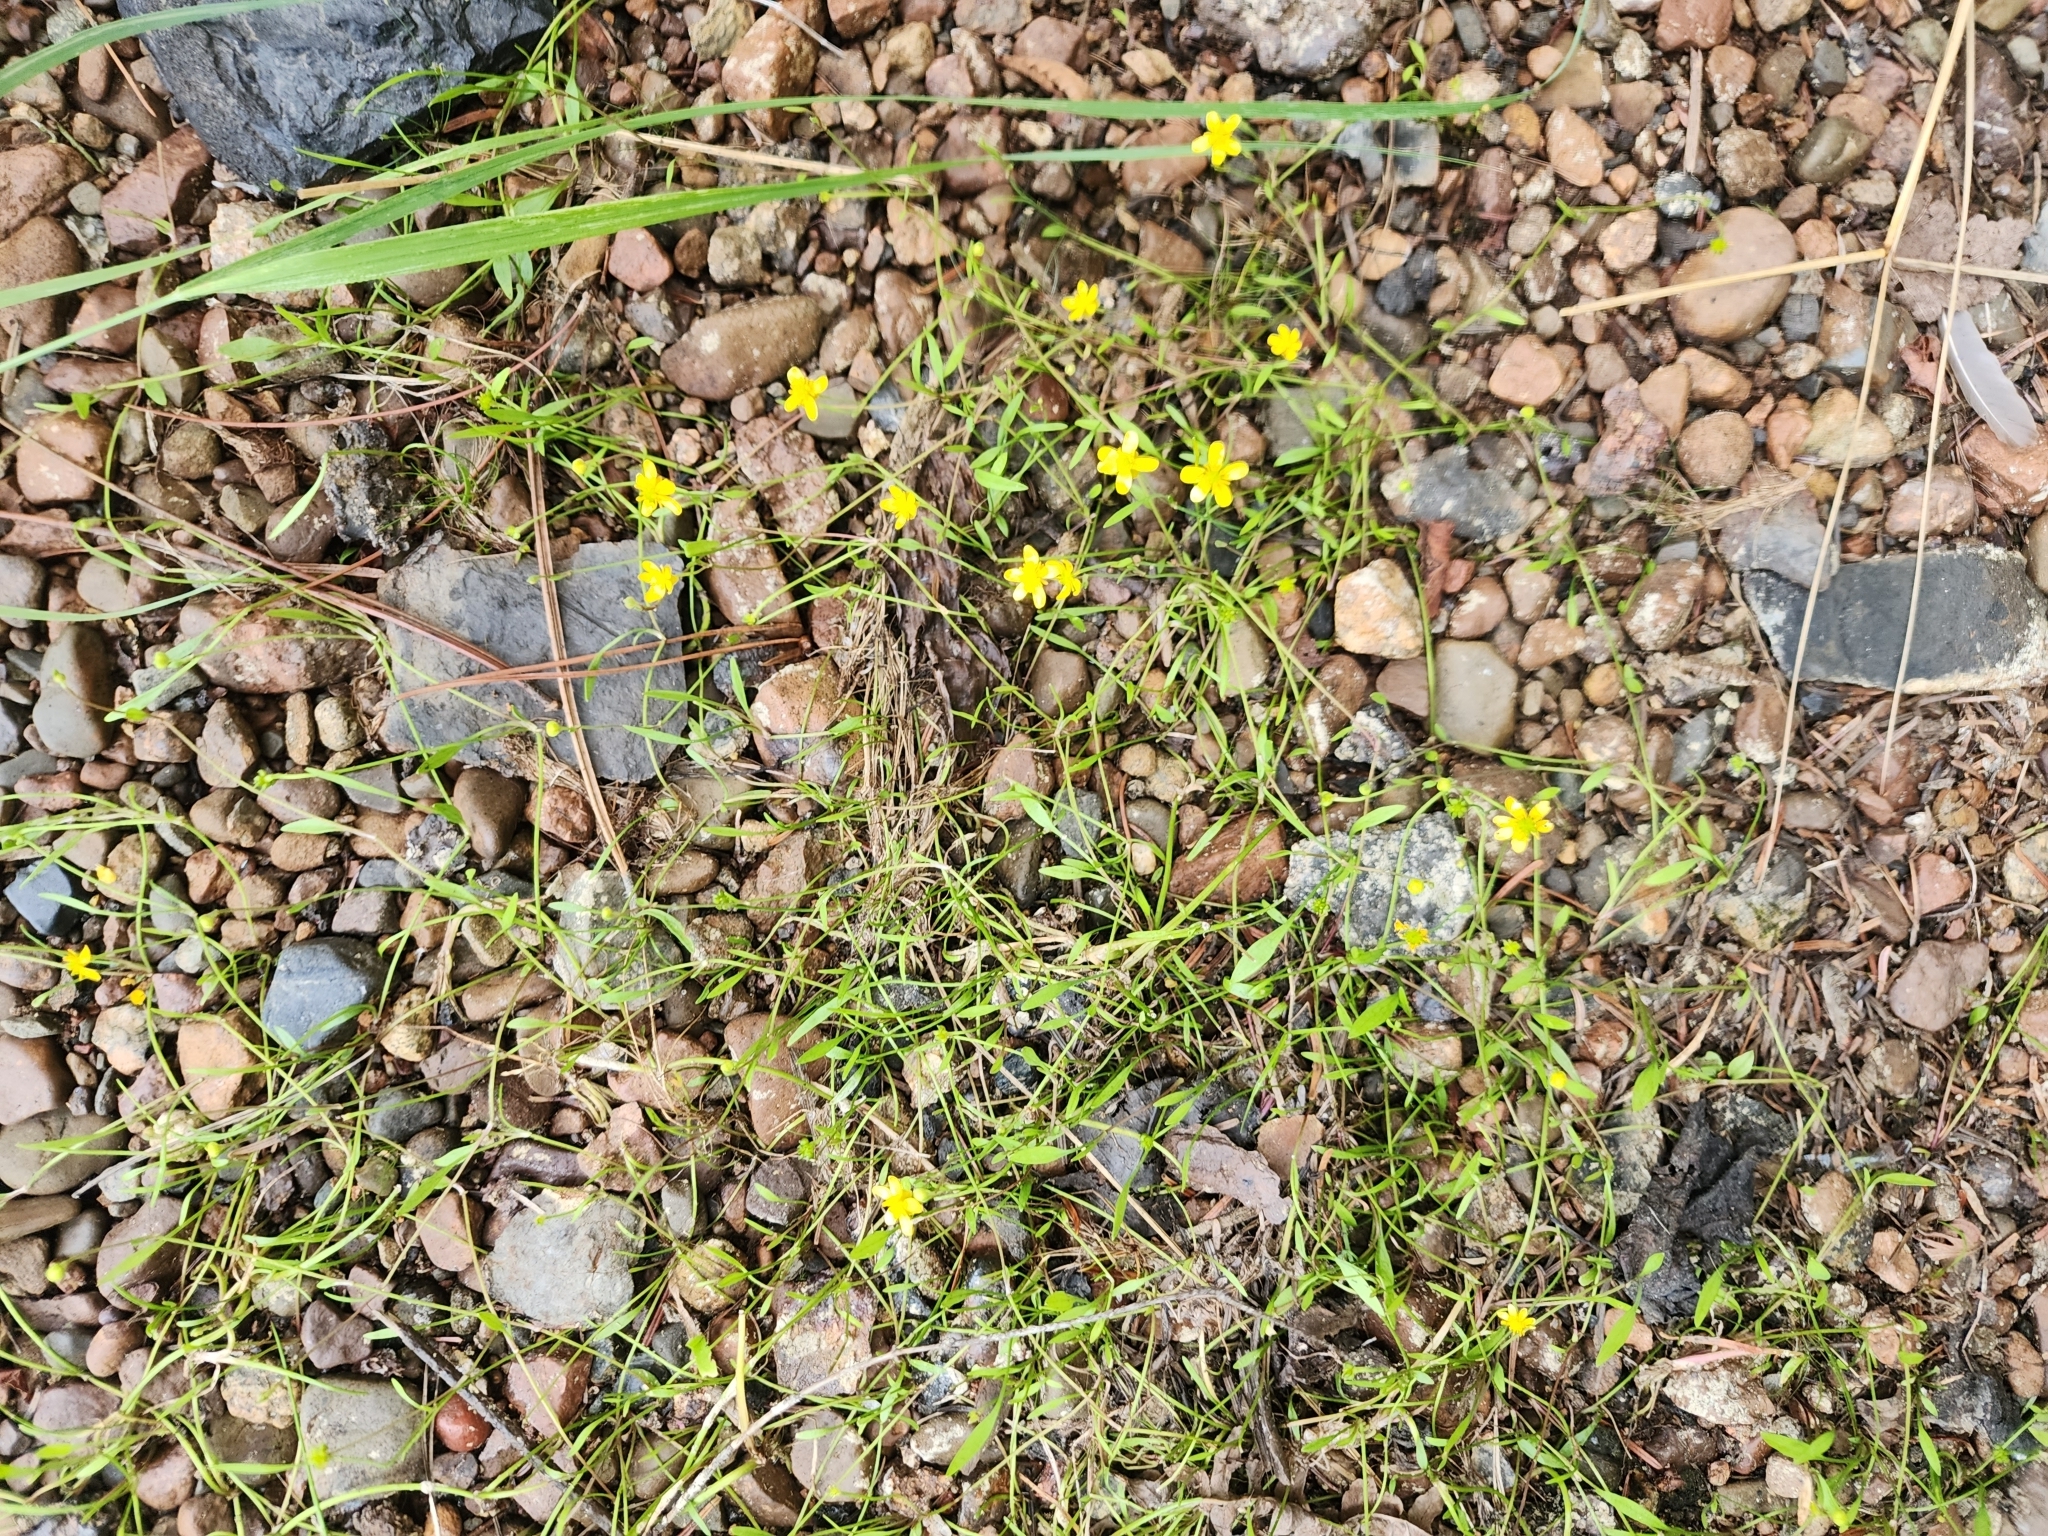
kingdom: Plantae
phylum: Tracheophyta
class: Magnoliopsida
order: Ranunculales
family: Ranunculaceae
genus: Ranunculus
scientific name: Ranunculus flammula
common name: Lesser spearwort
